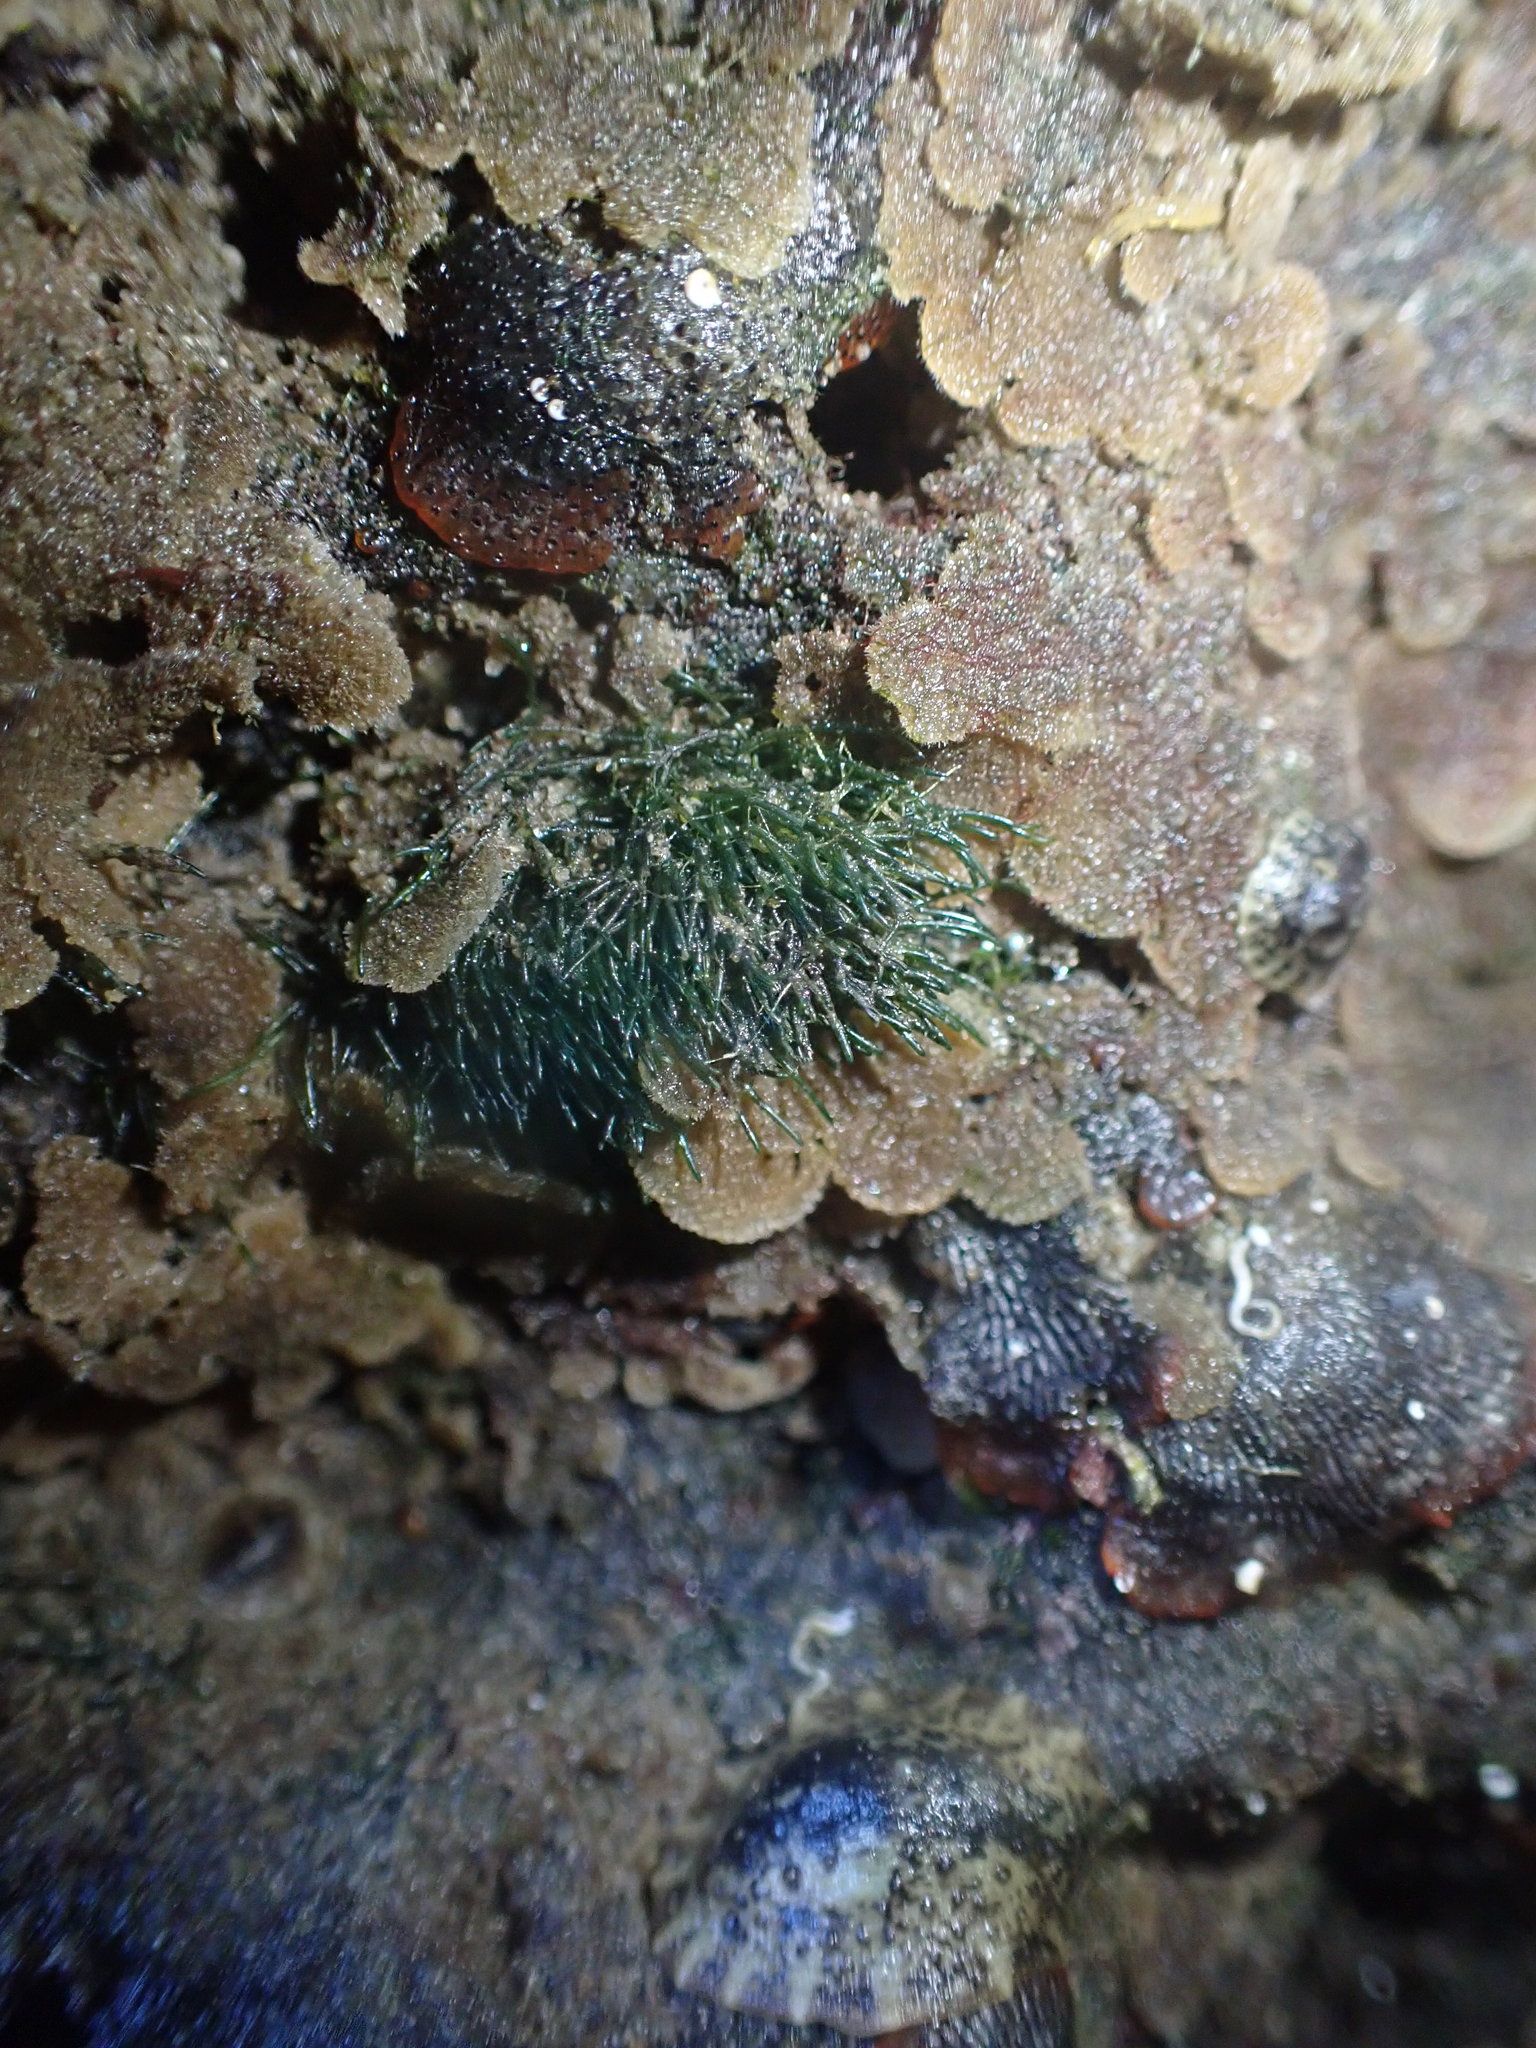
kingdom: Plantae
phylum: Chlorophyta
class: Ulvophyceae
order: Cladophorales
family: Cladophoraceae
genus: Lychaete
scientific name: Lychaete herpestica
